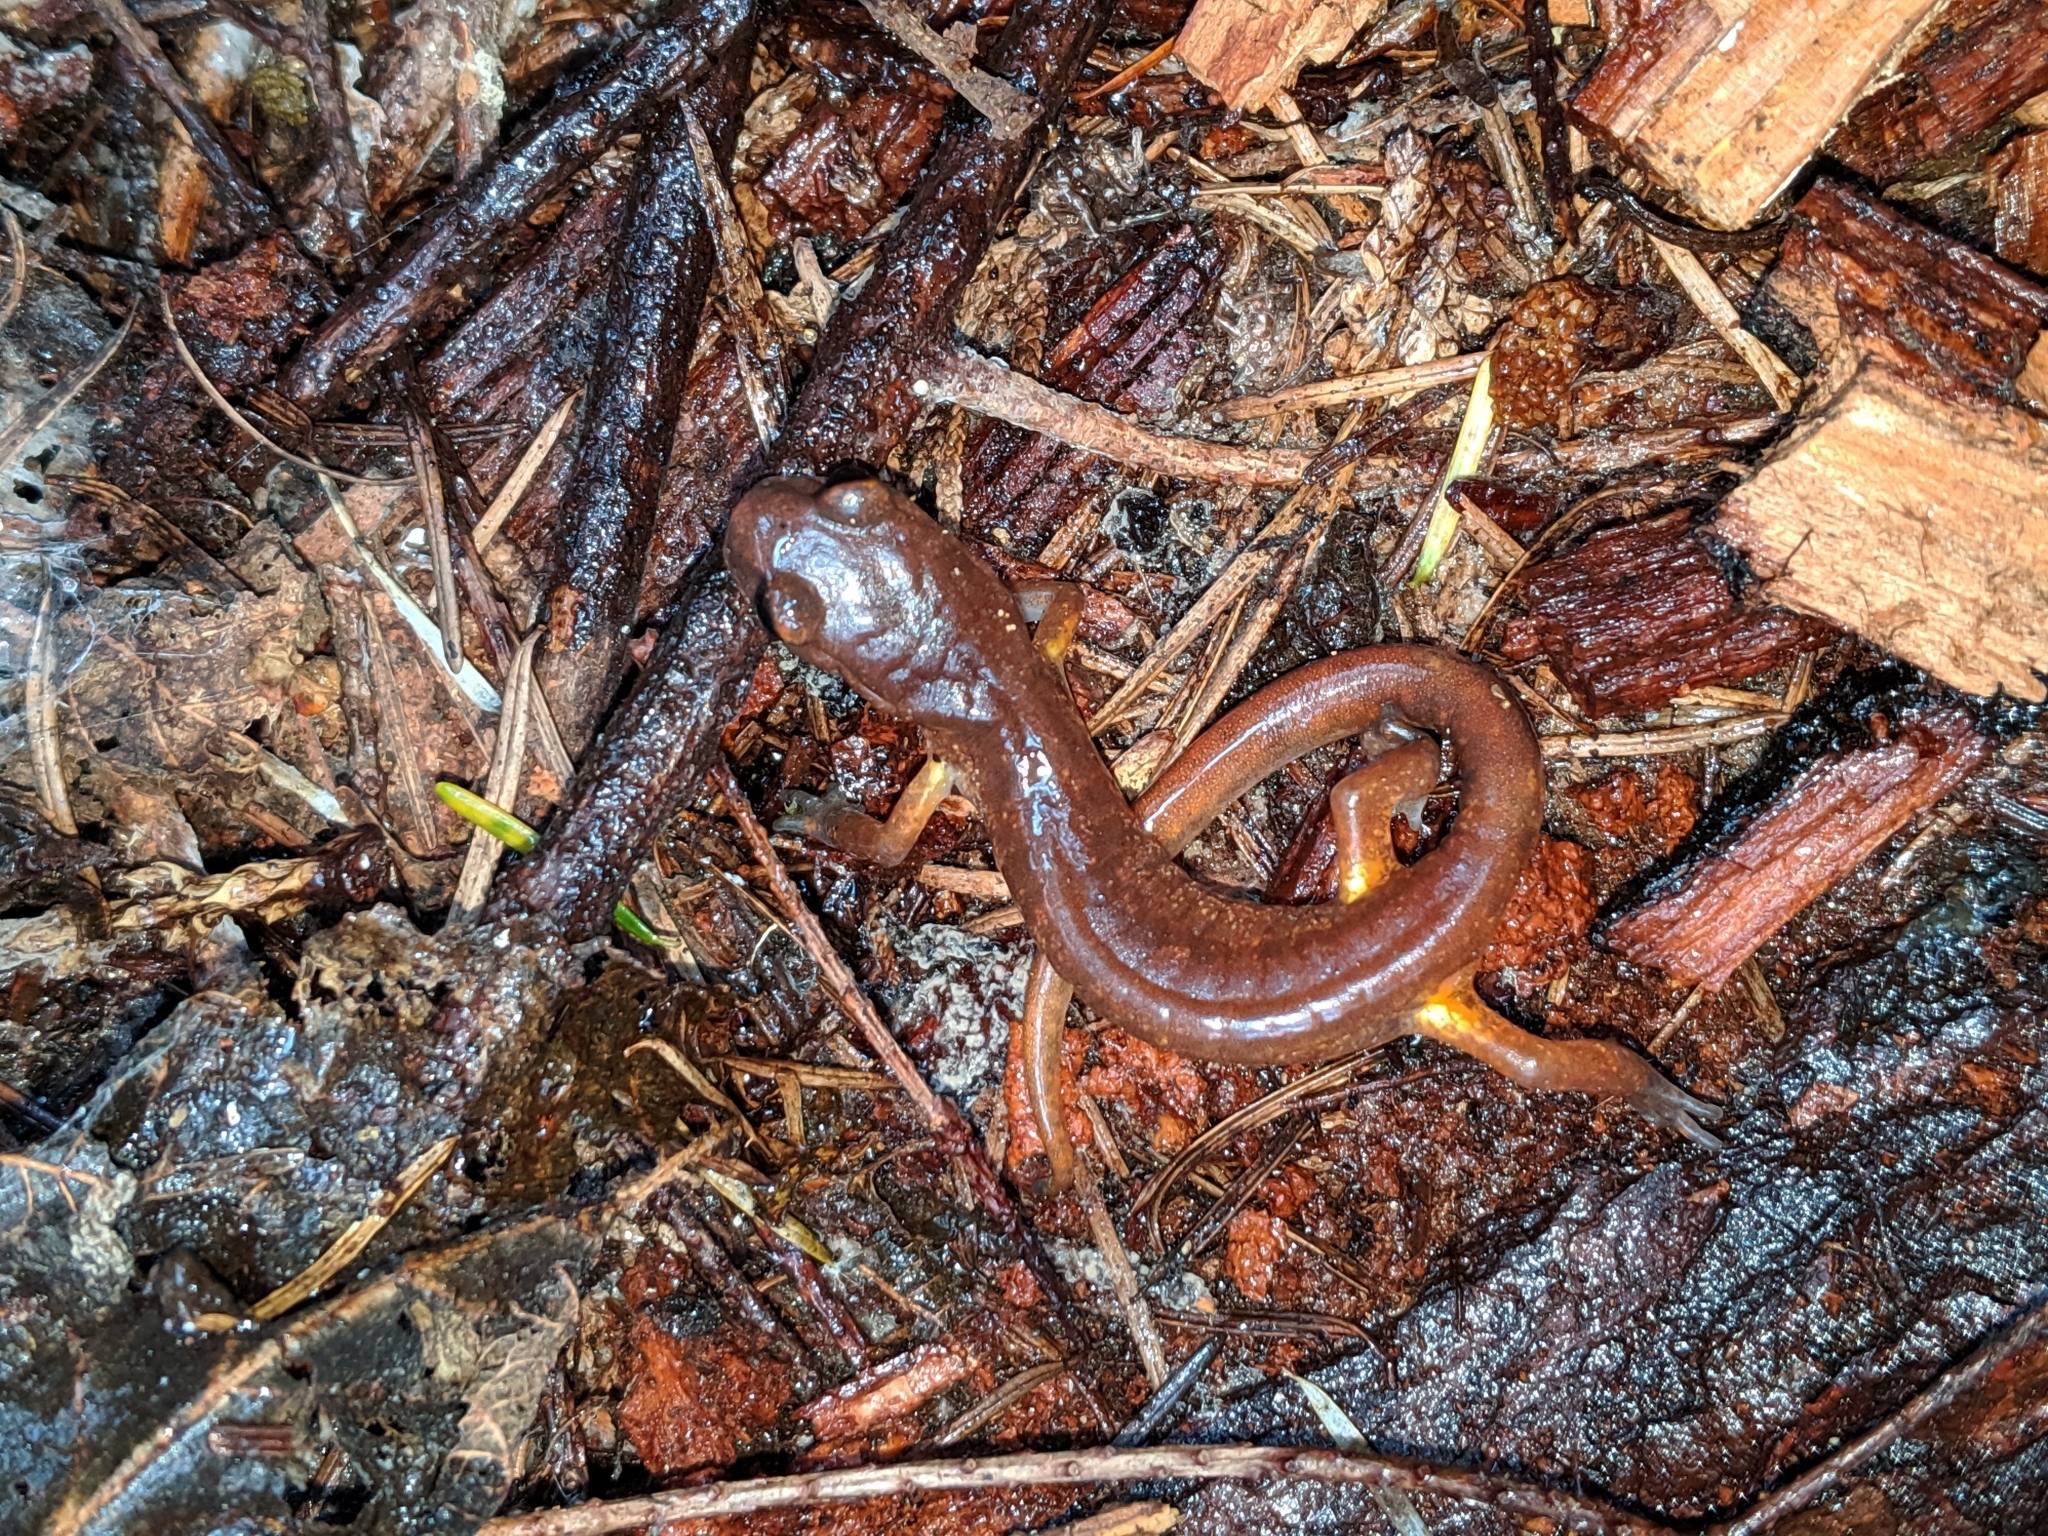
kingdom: Animalia
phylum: Chordata
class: Amphibia
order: Caudata
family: Plethodontidae
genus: Ensatina
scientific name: Ensatina eschscholtzii
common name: Ensatina
